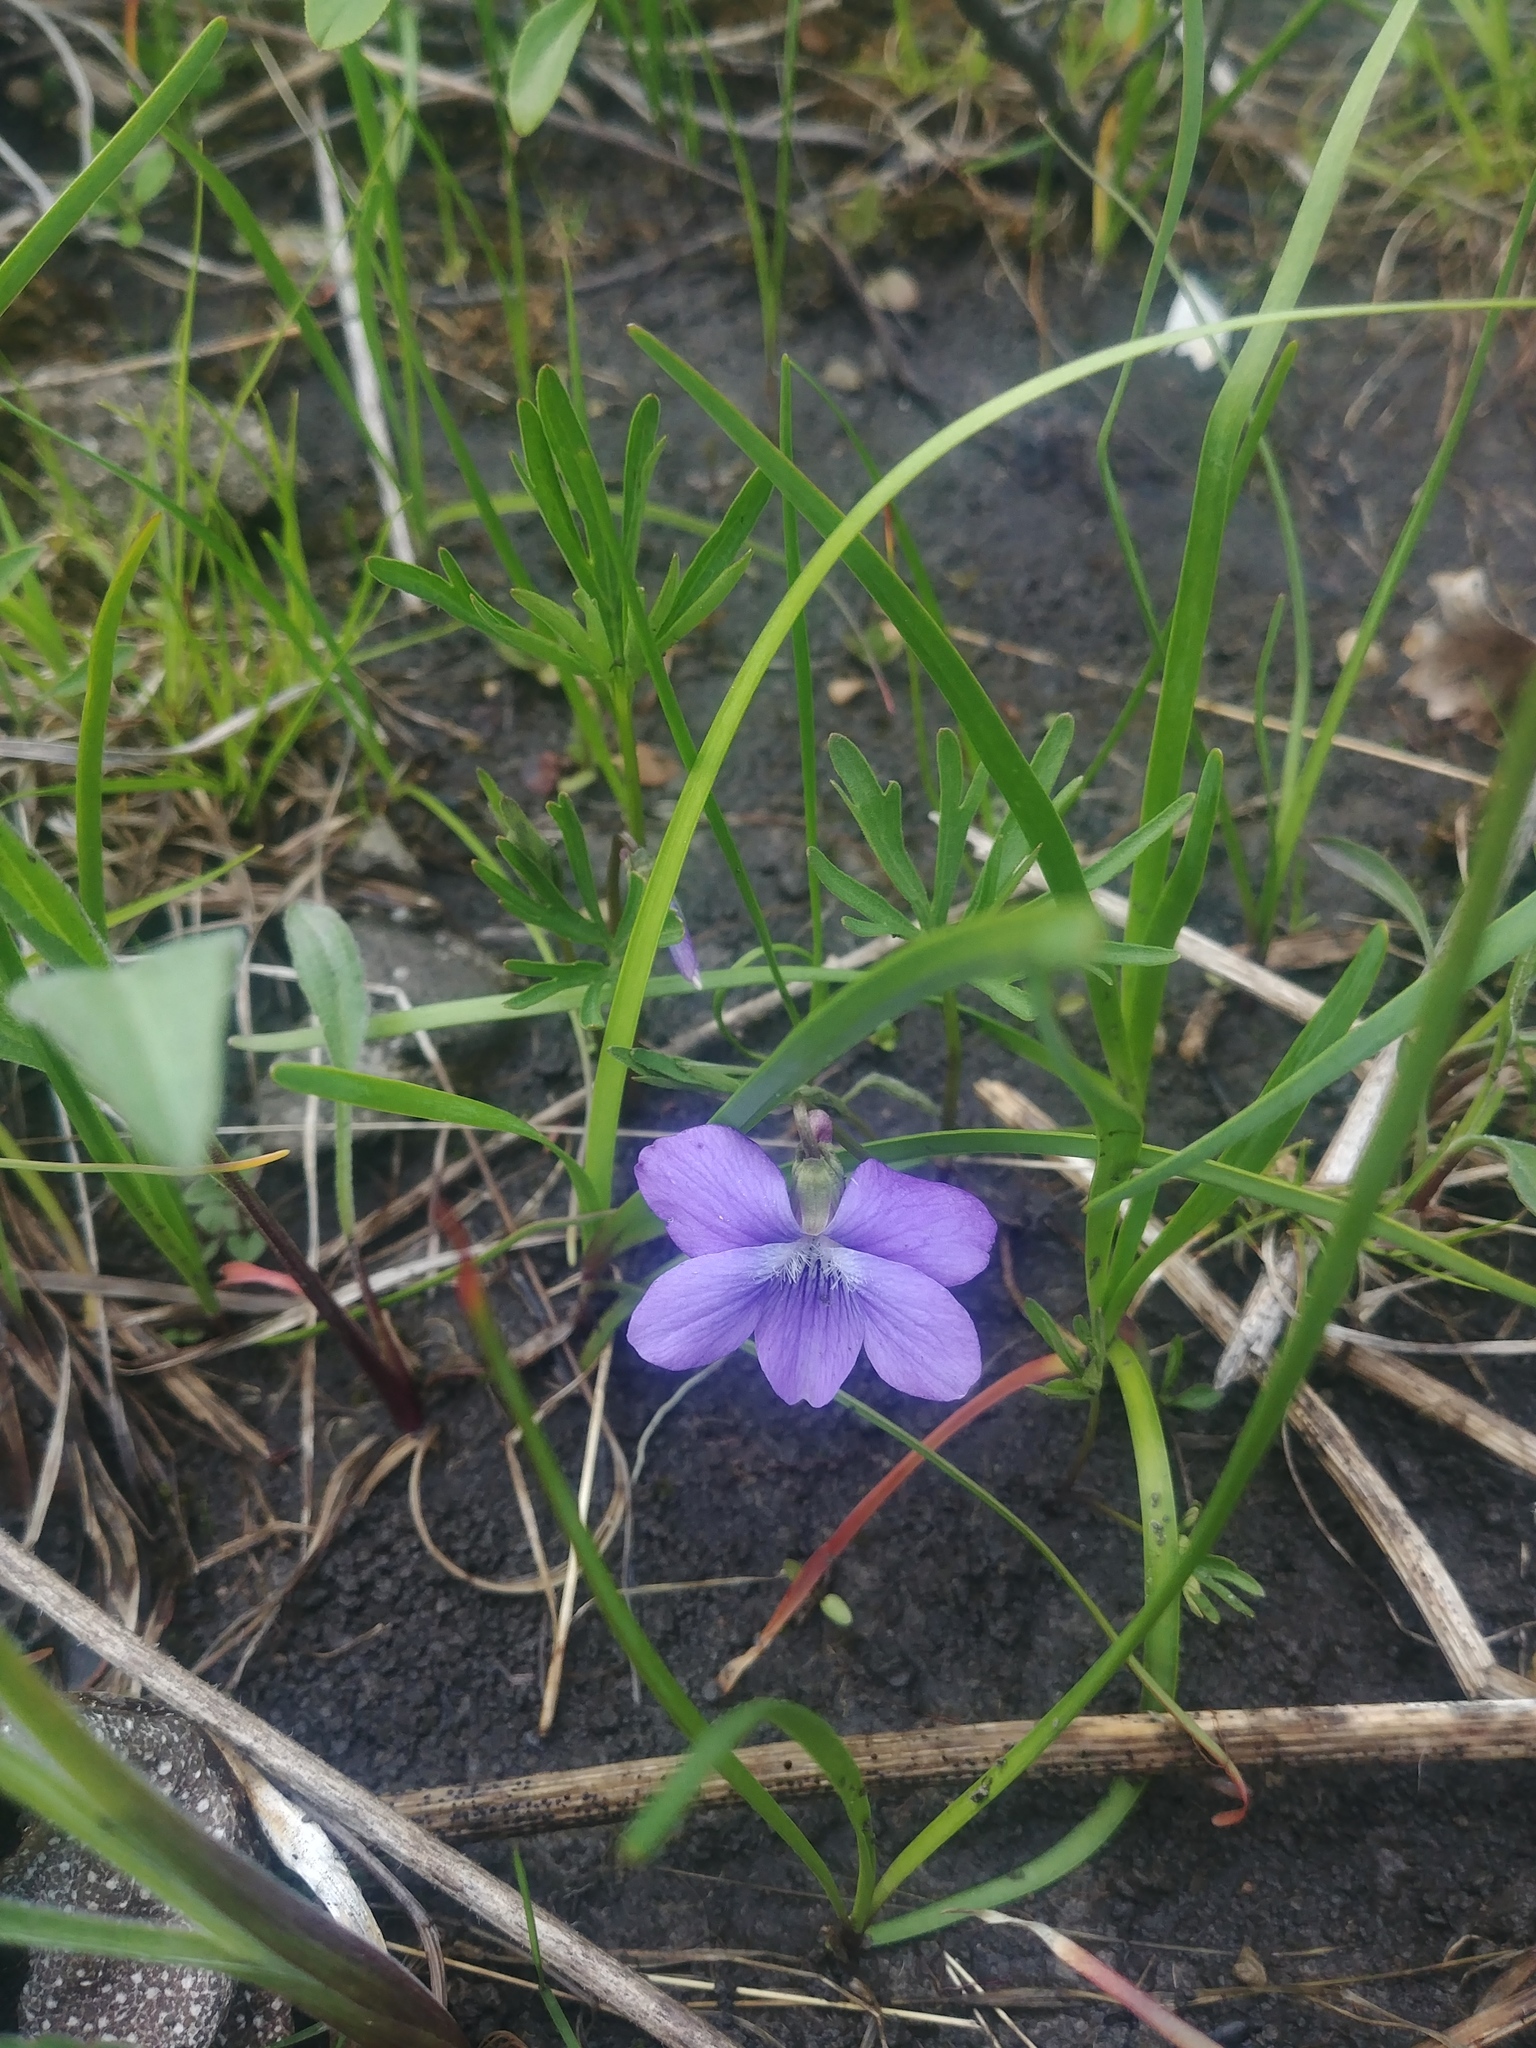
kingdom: Plantae
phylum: Tracheophyta
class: Magnoliopsida
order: Malpighiales
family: Violaceae
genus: Viola
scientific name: Viola pedatifida
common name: Prairie violet
